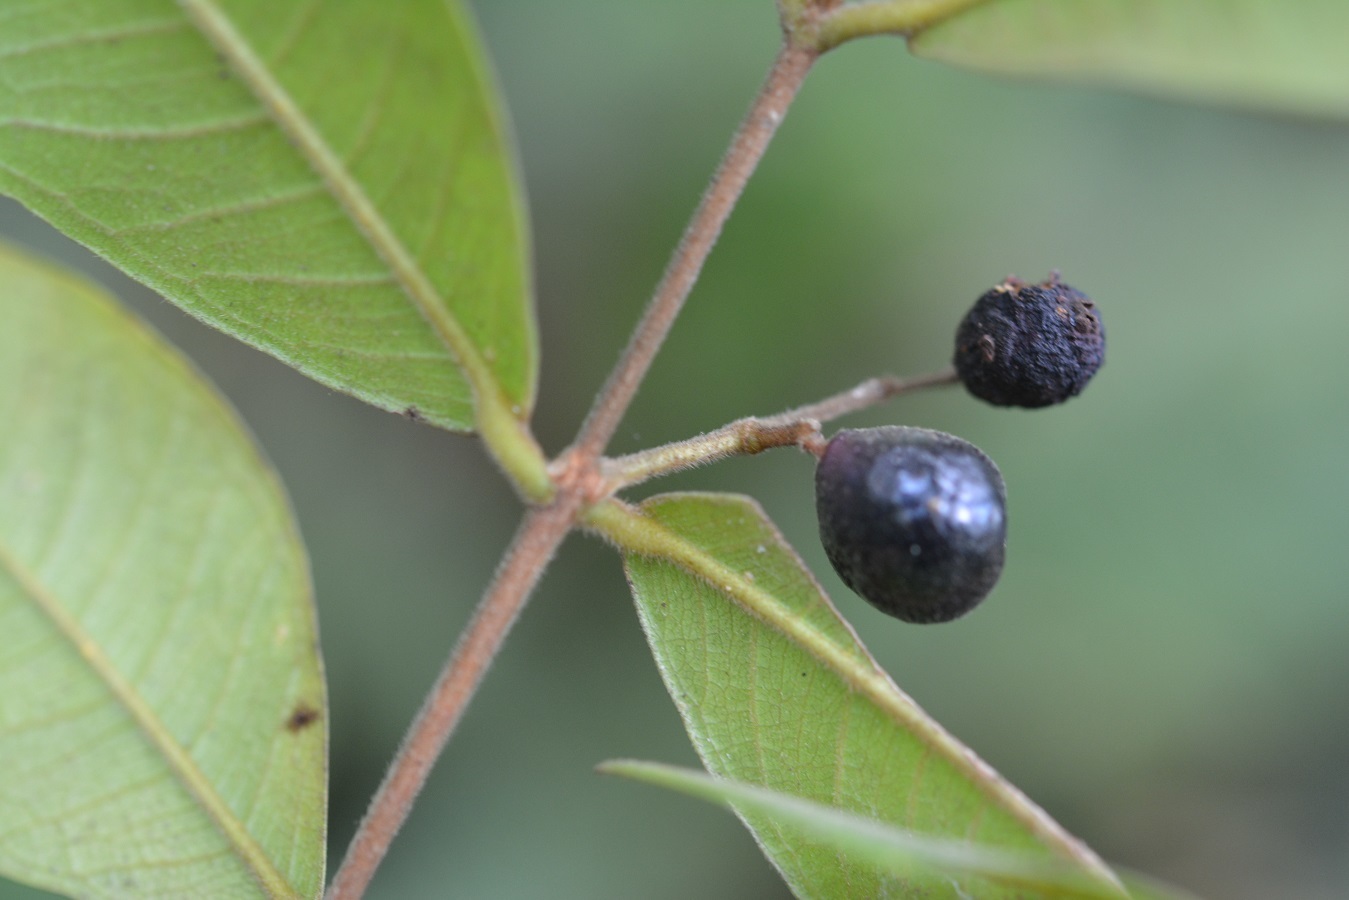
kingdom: Plantae
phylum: Tracheophyta
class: Magnoliopsida
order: Myrtales
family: Myrtaceae
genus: Eugenia
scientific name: Eugenia karwinskyana
